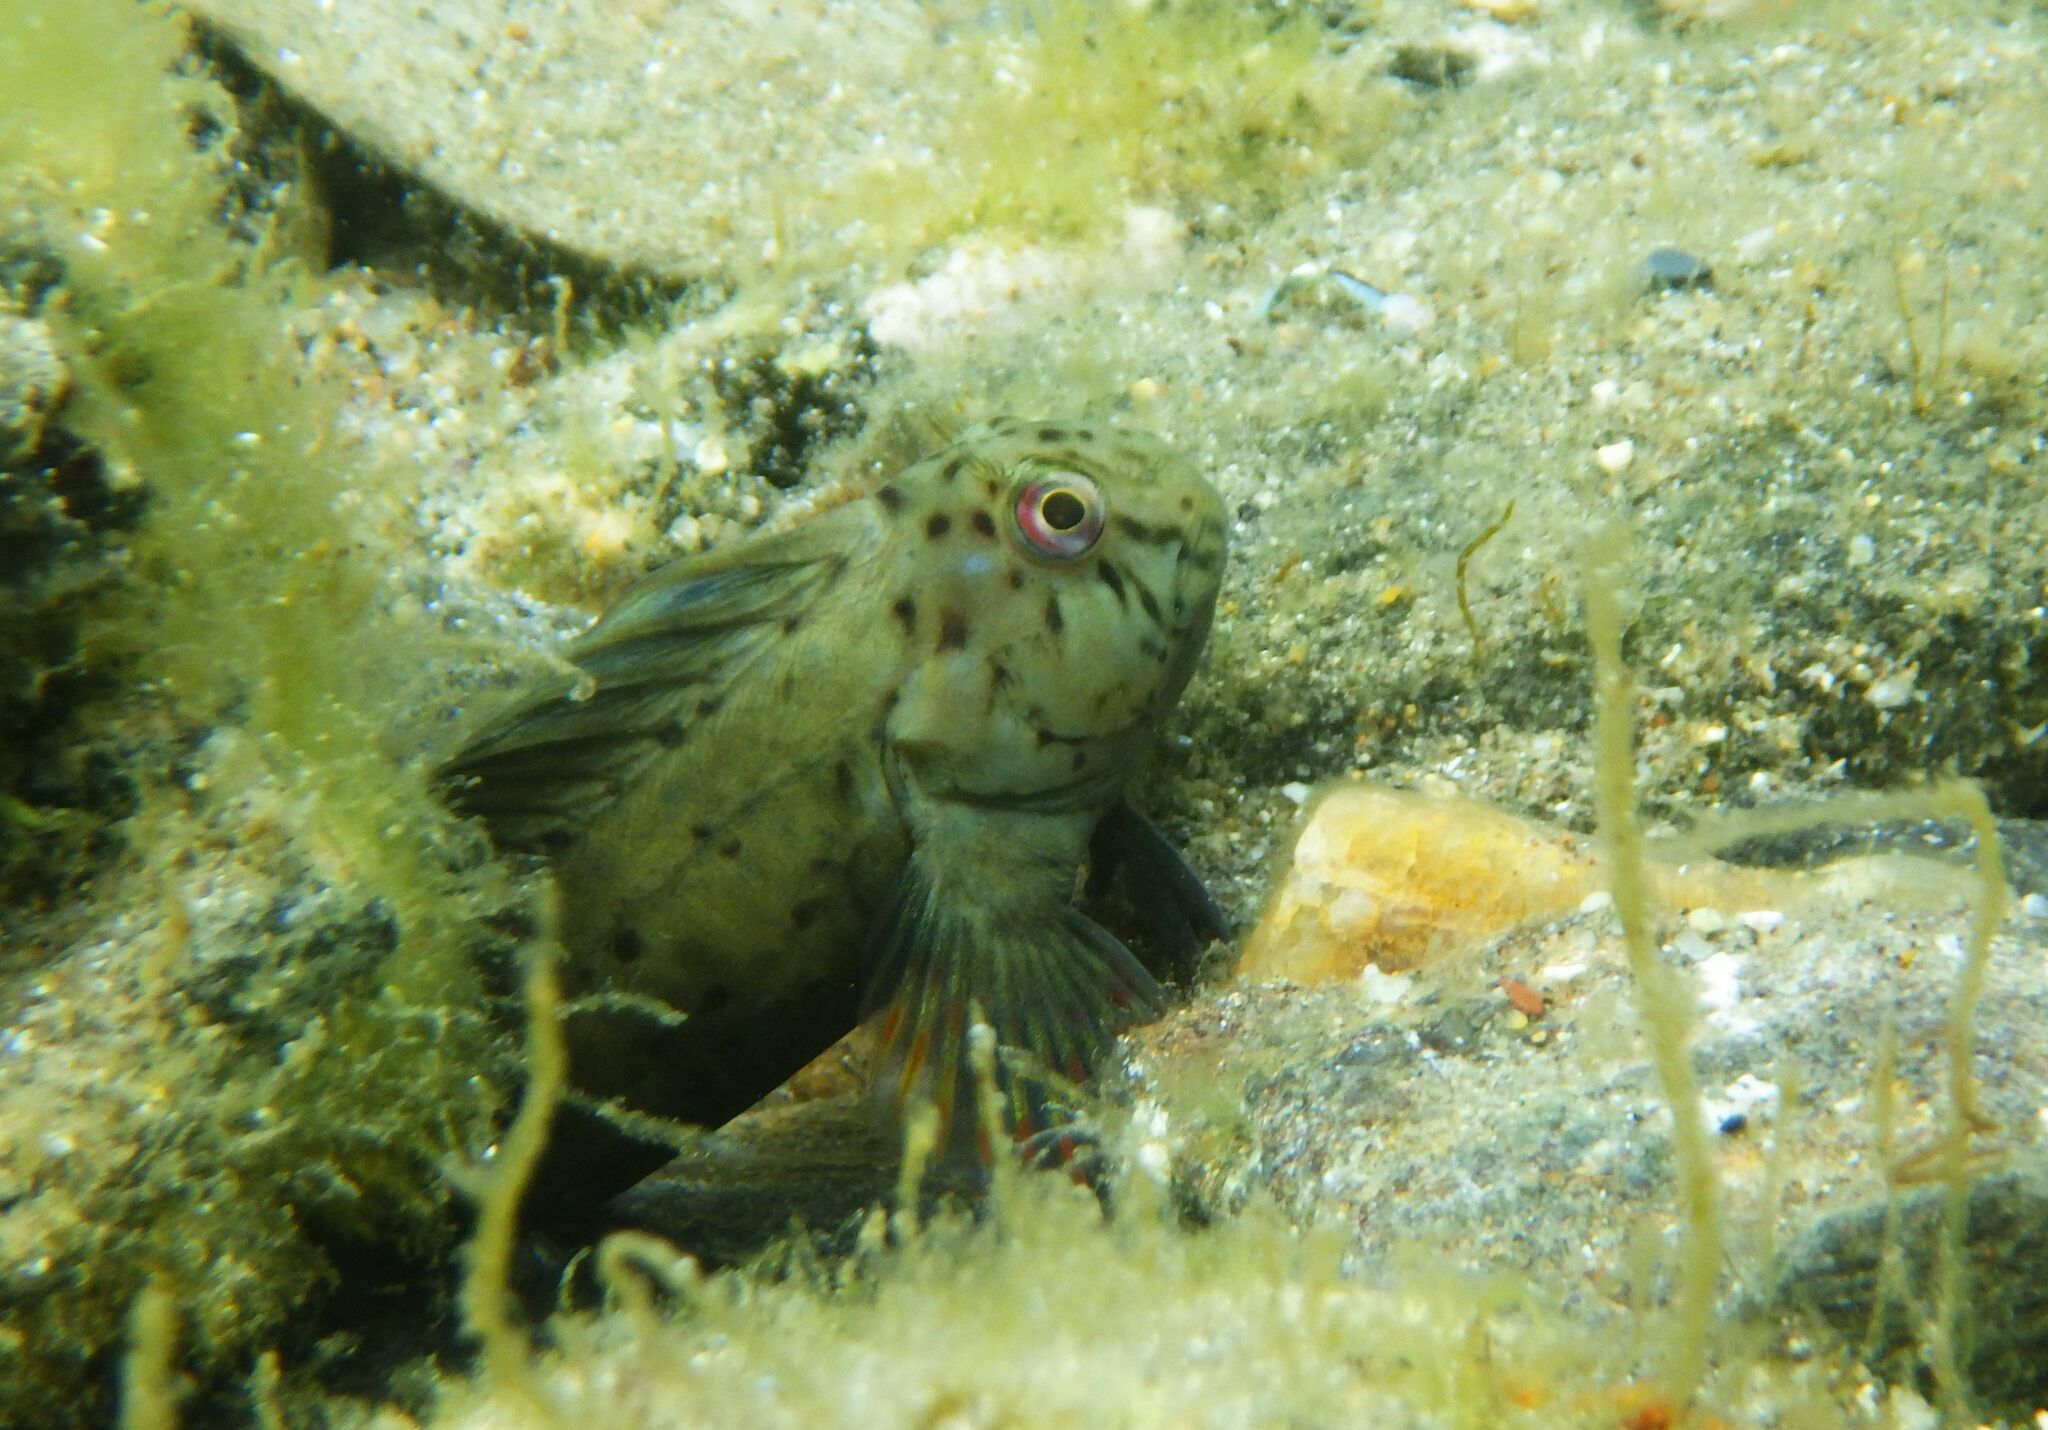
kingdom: Animalia
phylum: Chordata
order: Perciformes
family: Blenniidae
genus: Parablennius
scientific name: Parablennius sanguinolentus
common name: Black sea blenny
